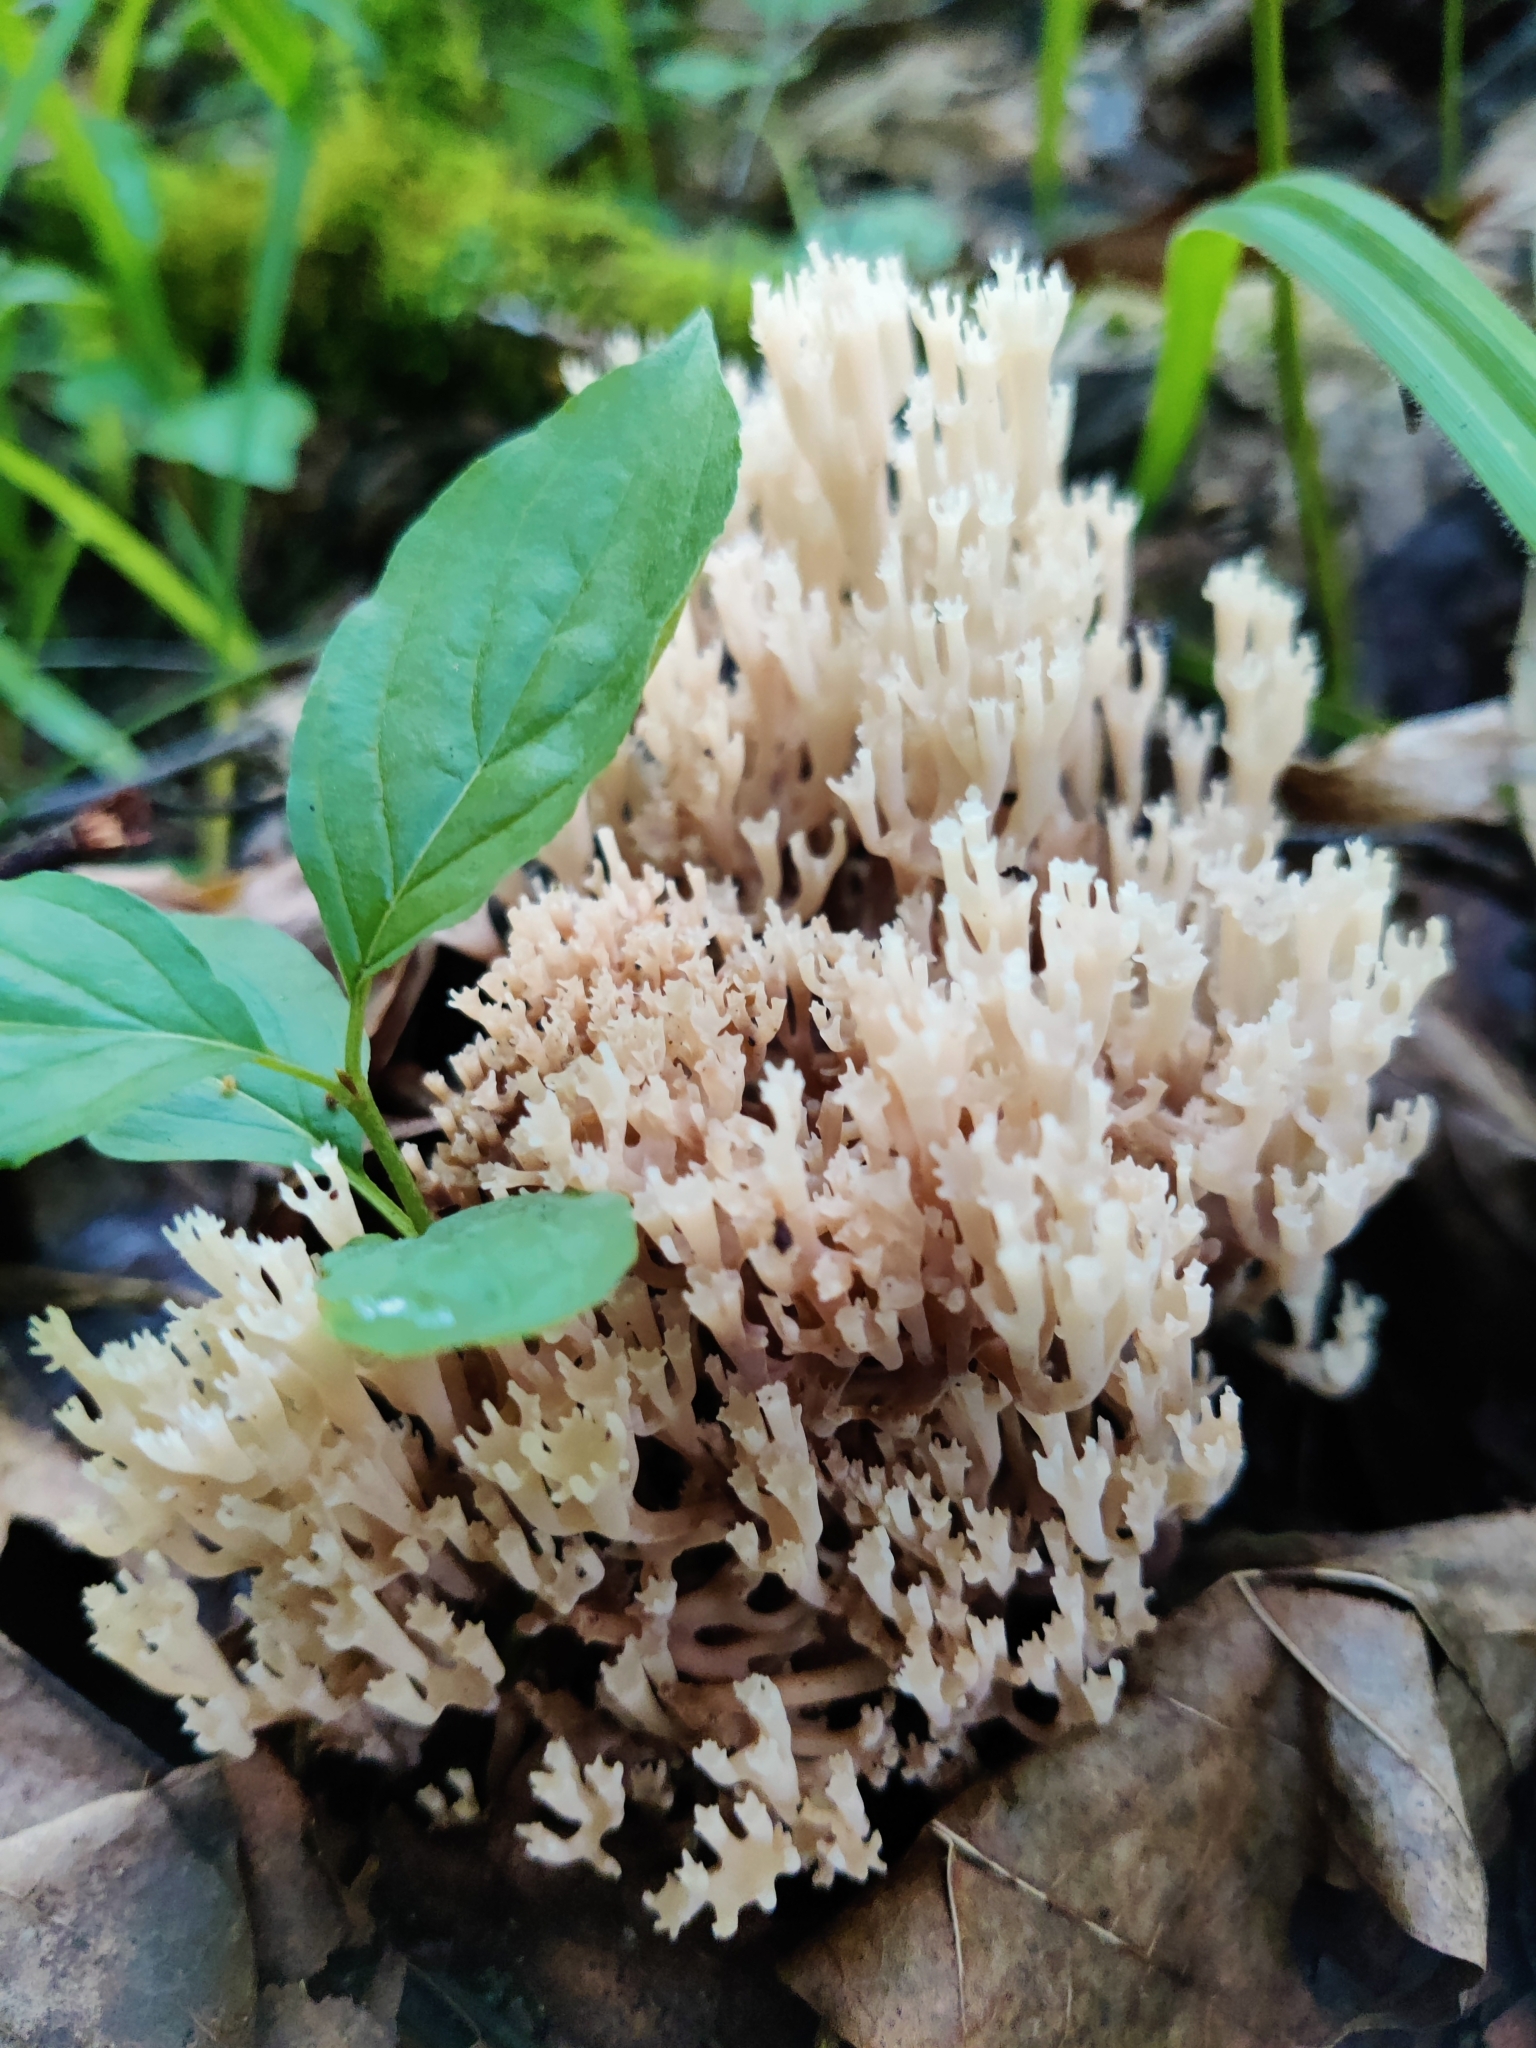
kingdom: Fungi
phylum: Basidiomycota
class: Agaricomycetes
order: Russulales
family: Auriscalpiaceae
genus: Artomyces
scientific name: Artomyces pyxidatus
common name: Crown-tipped coral fungus
